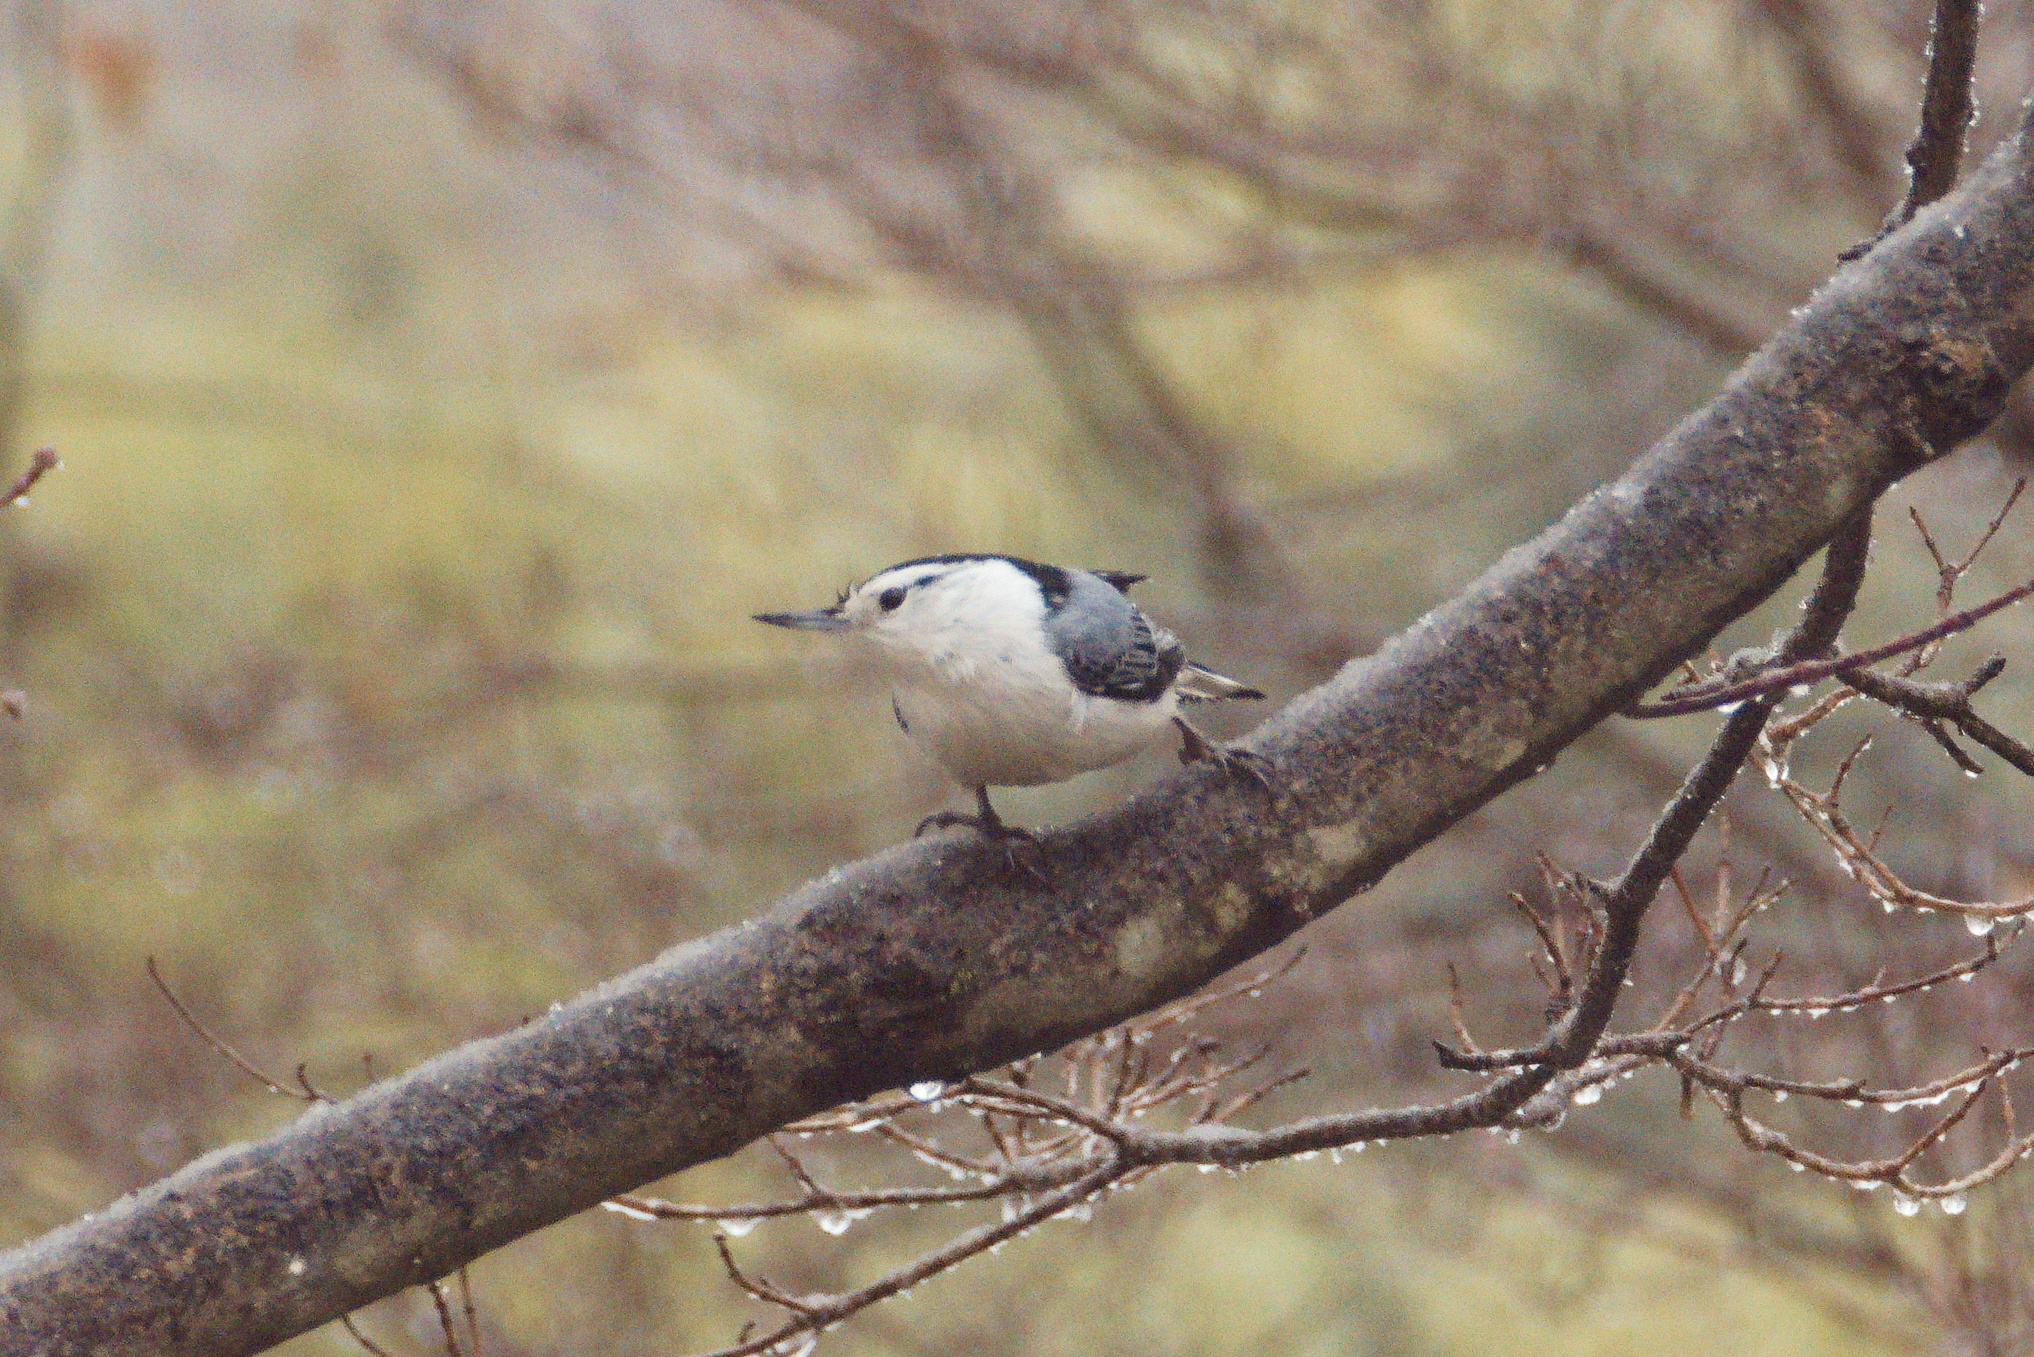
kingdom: Animalia
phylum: Chordata
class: Aves
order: Passeriformes
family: Sittidae
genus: Sitta
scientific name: Sitta carolinensis
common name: White-breasted nuthatch
